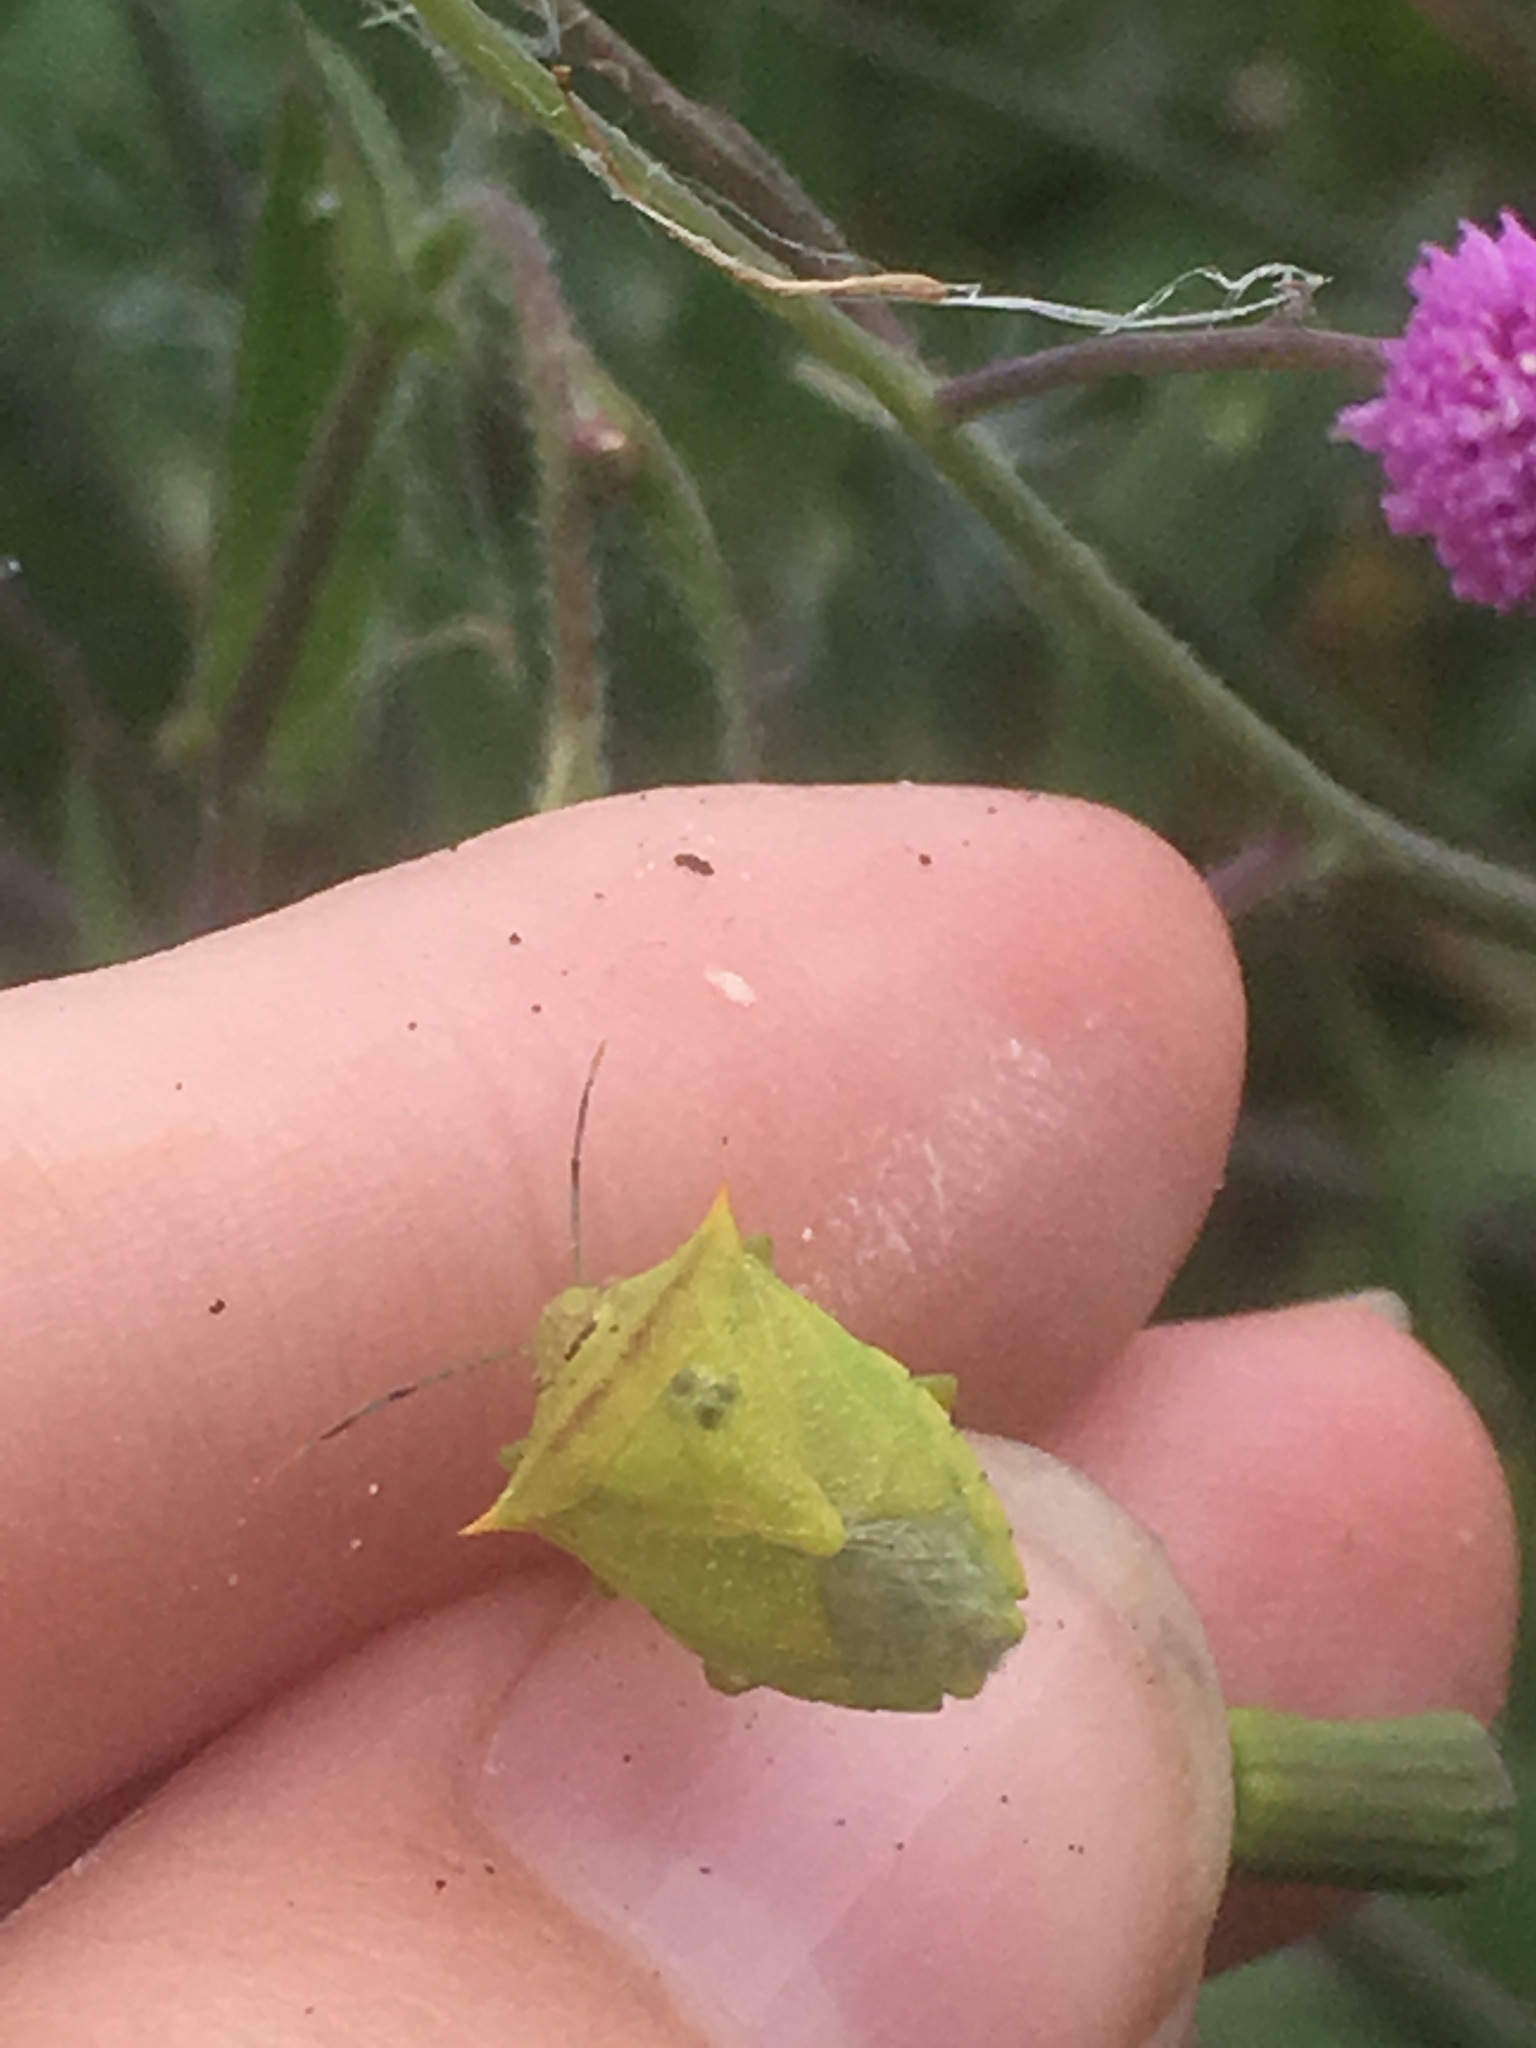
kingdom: Animalia
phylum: Arthropoda
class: Insecta
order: Hemiptera
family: Pentatomidae
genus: Thyanta
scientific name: Thyanta perditor
